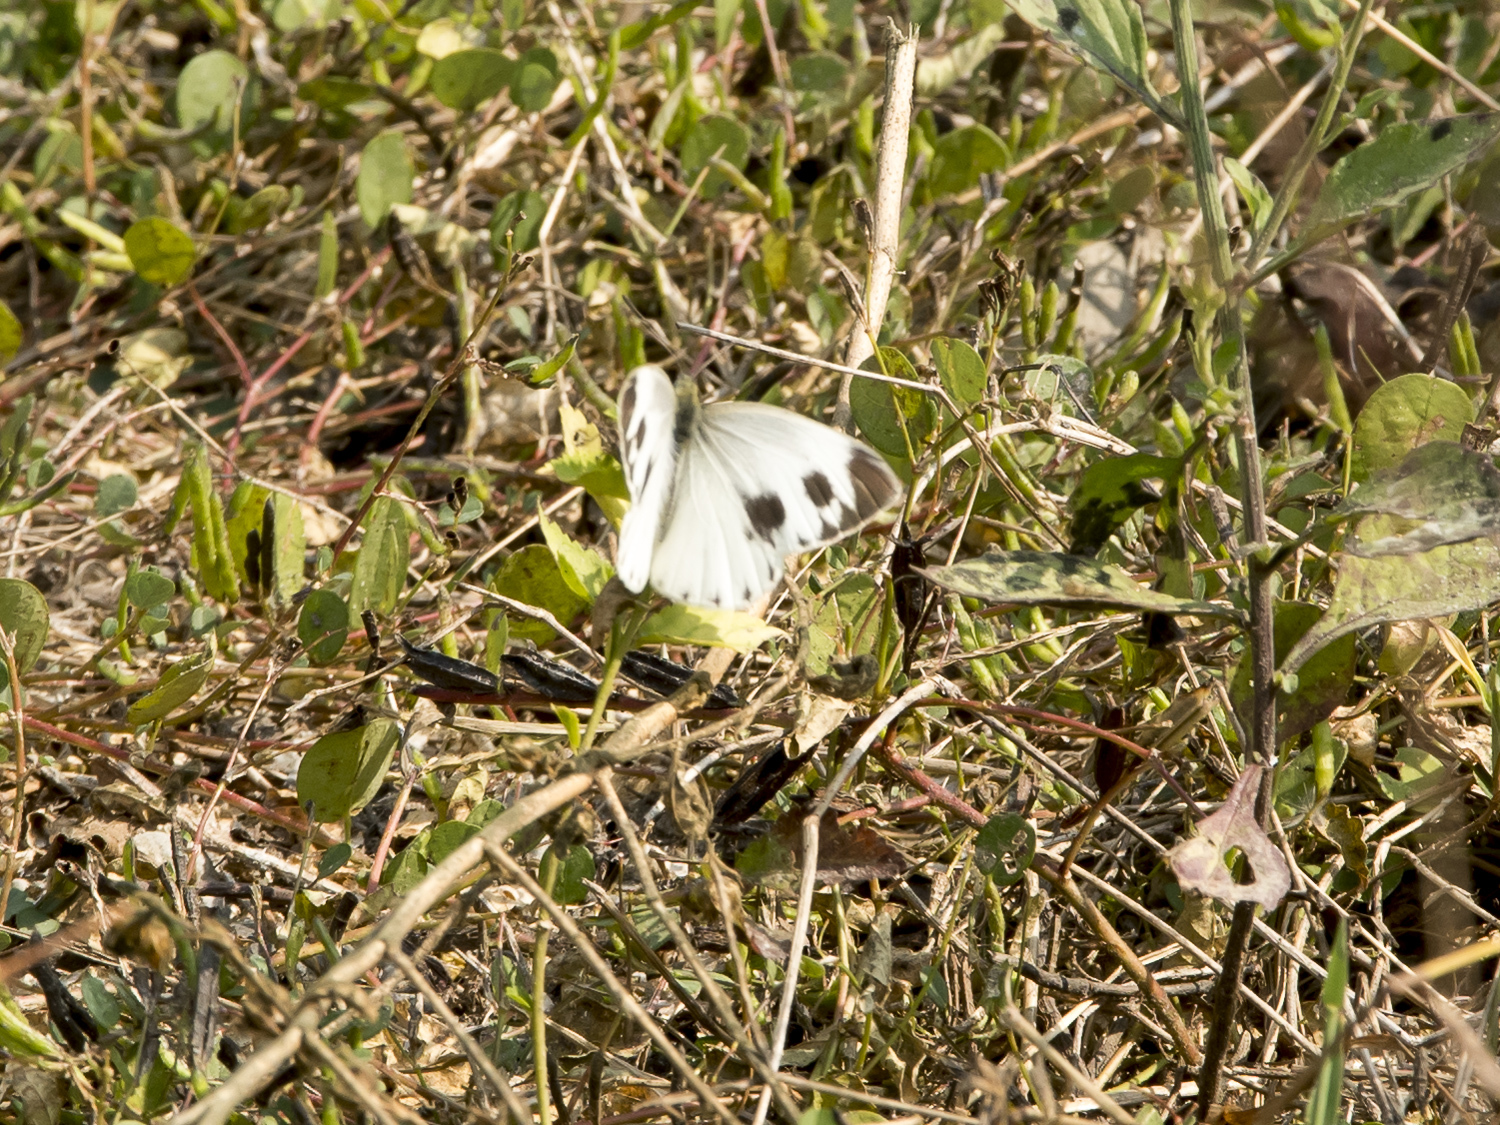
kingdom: Animalia
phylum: Arthropoda
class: Insecta
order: Lepidoptera
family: Pieridae
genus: Pieris
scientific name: Pieris canidia
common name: Indian cabbage white
